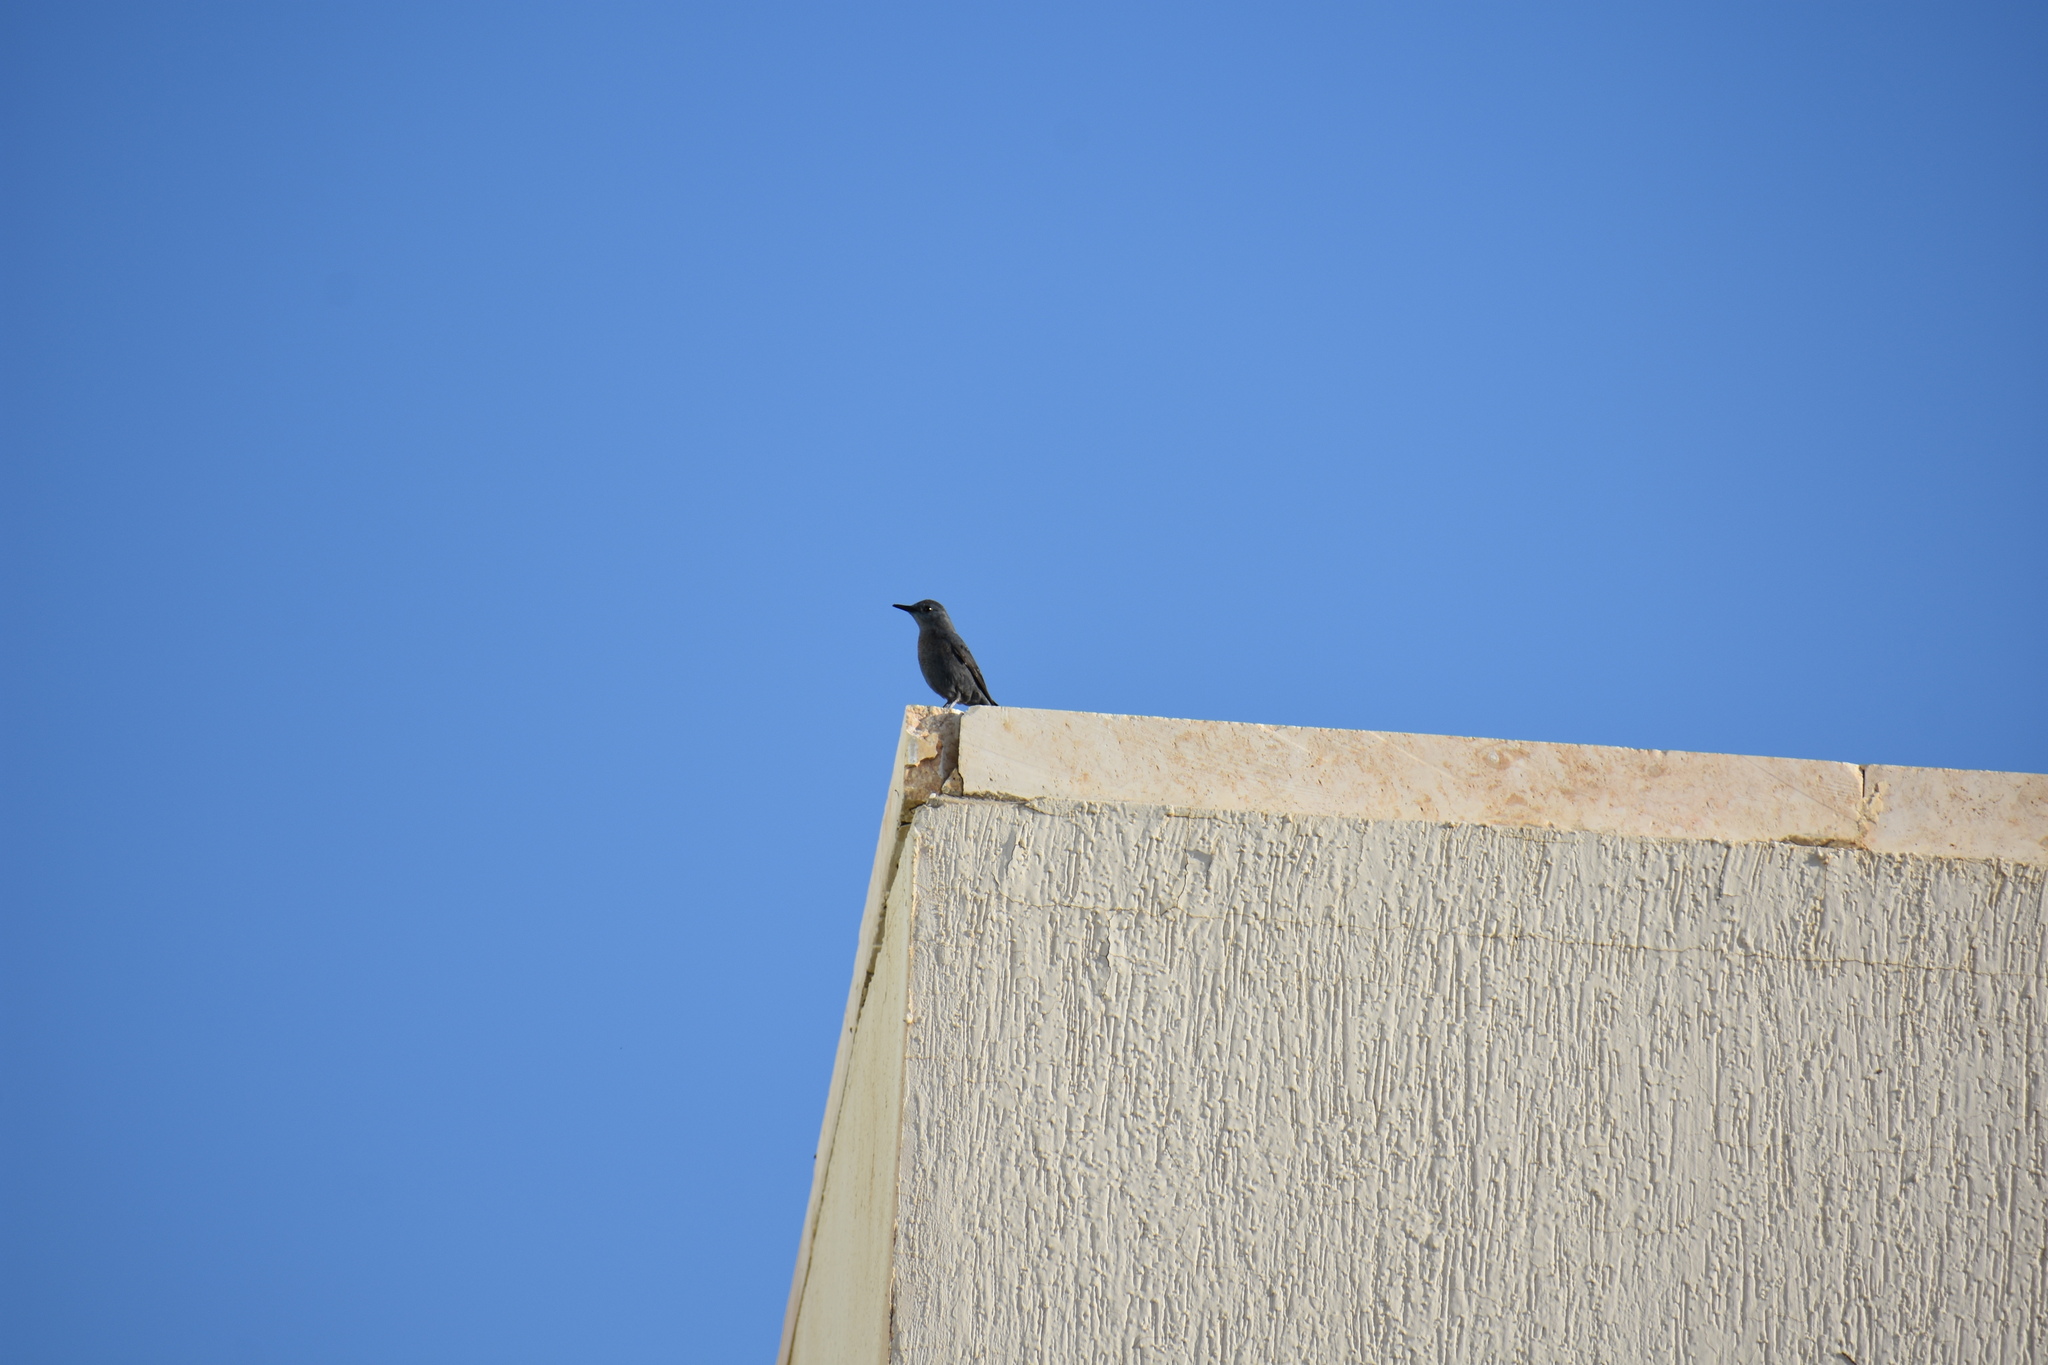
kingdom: Animalia
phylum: Chordata
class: Aves
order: Passeriformes
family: Muscicapidae
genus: Monticola
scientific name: Monticola solitarius
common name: Blue rock thrush
